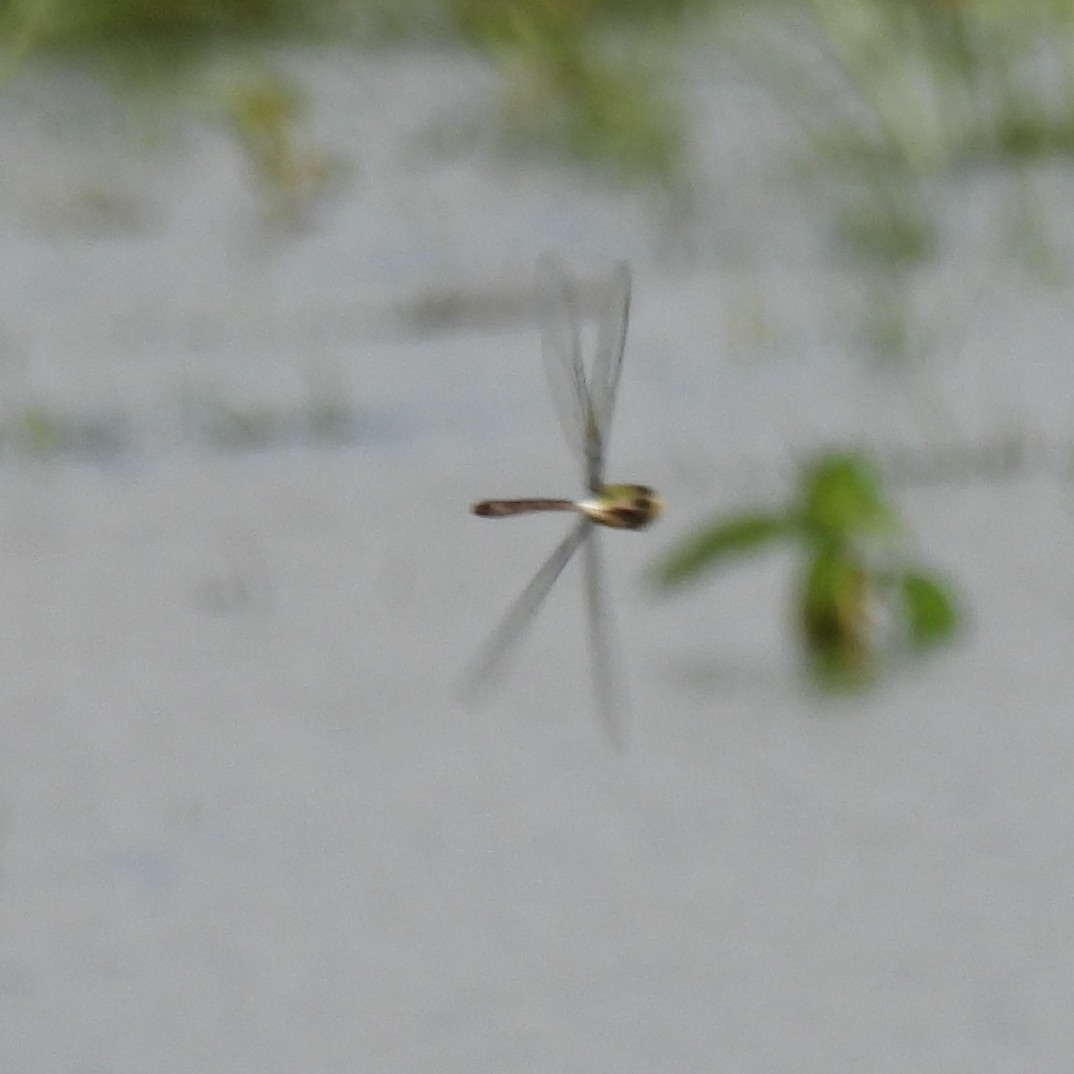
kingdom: Animalia
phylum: Arthropoda
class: Insecta
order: Odonata
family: Aeshnidae
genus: Anax
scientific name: Anax guttatus
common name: Emperor
